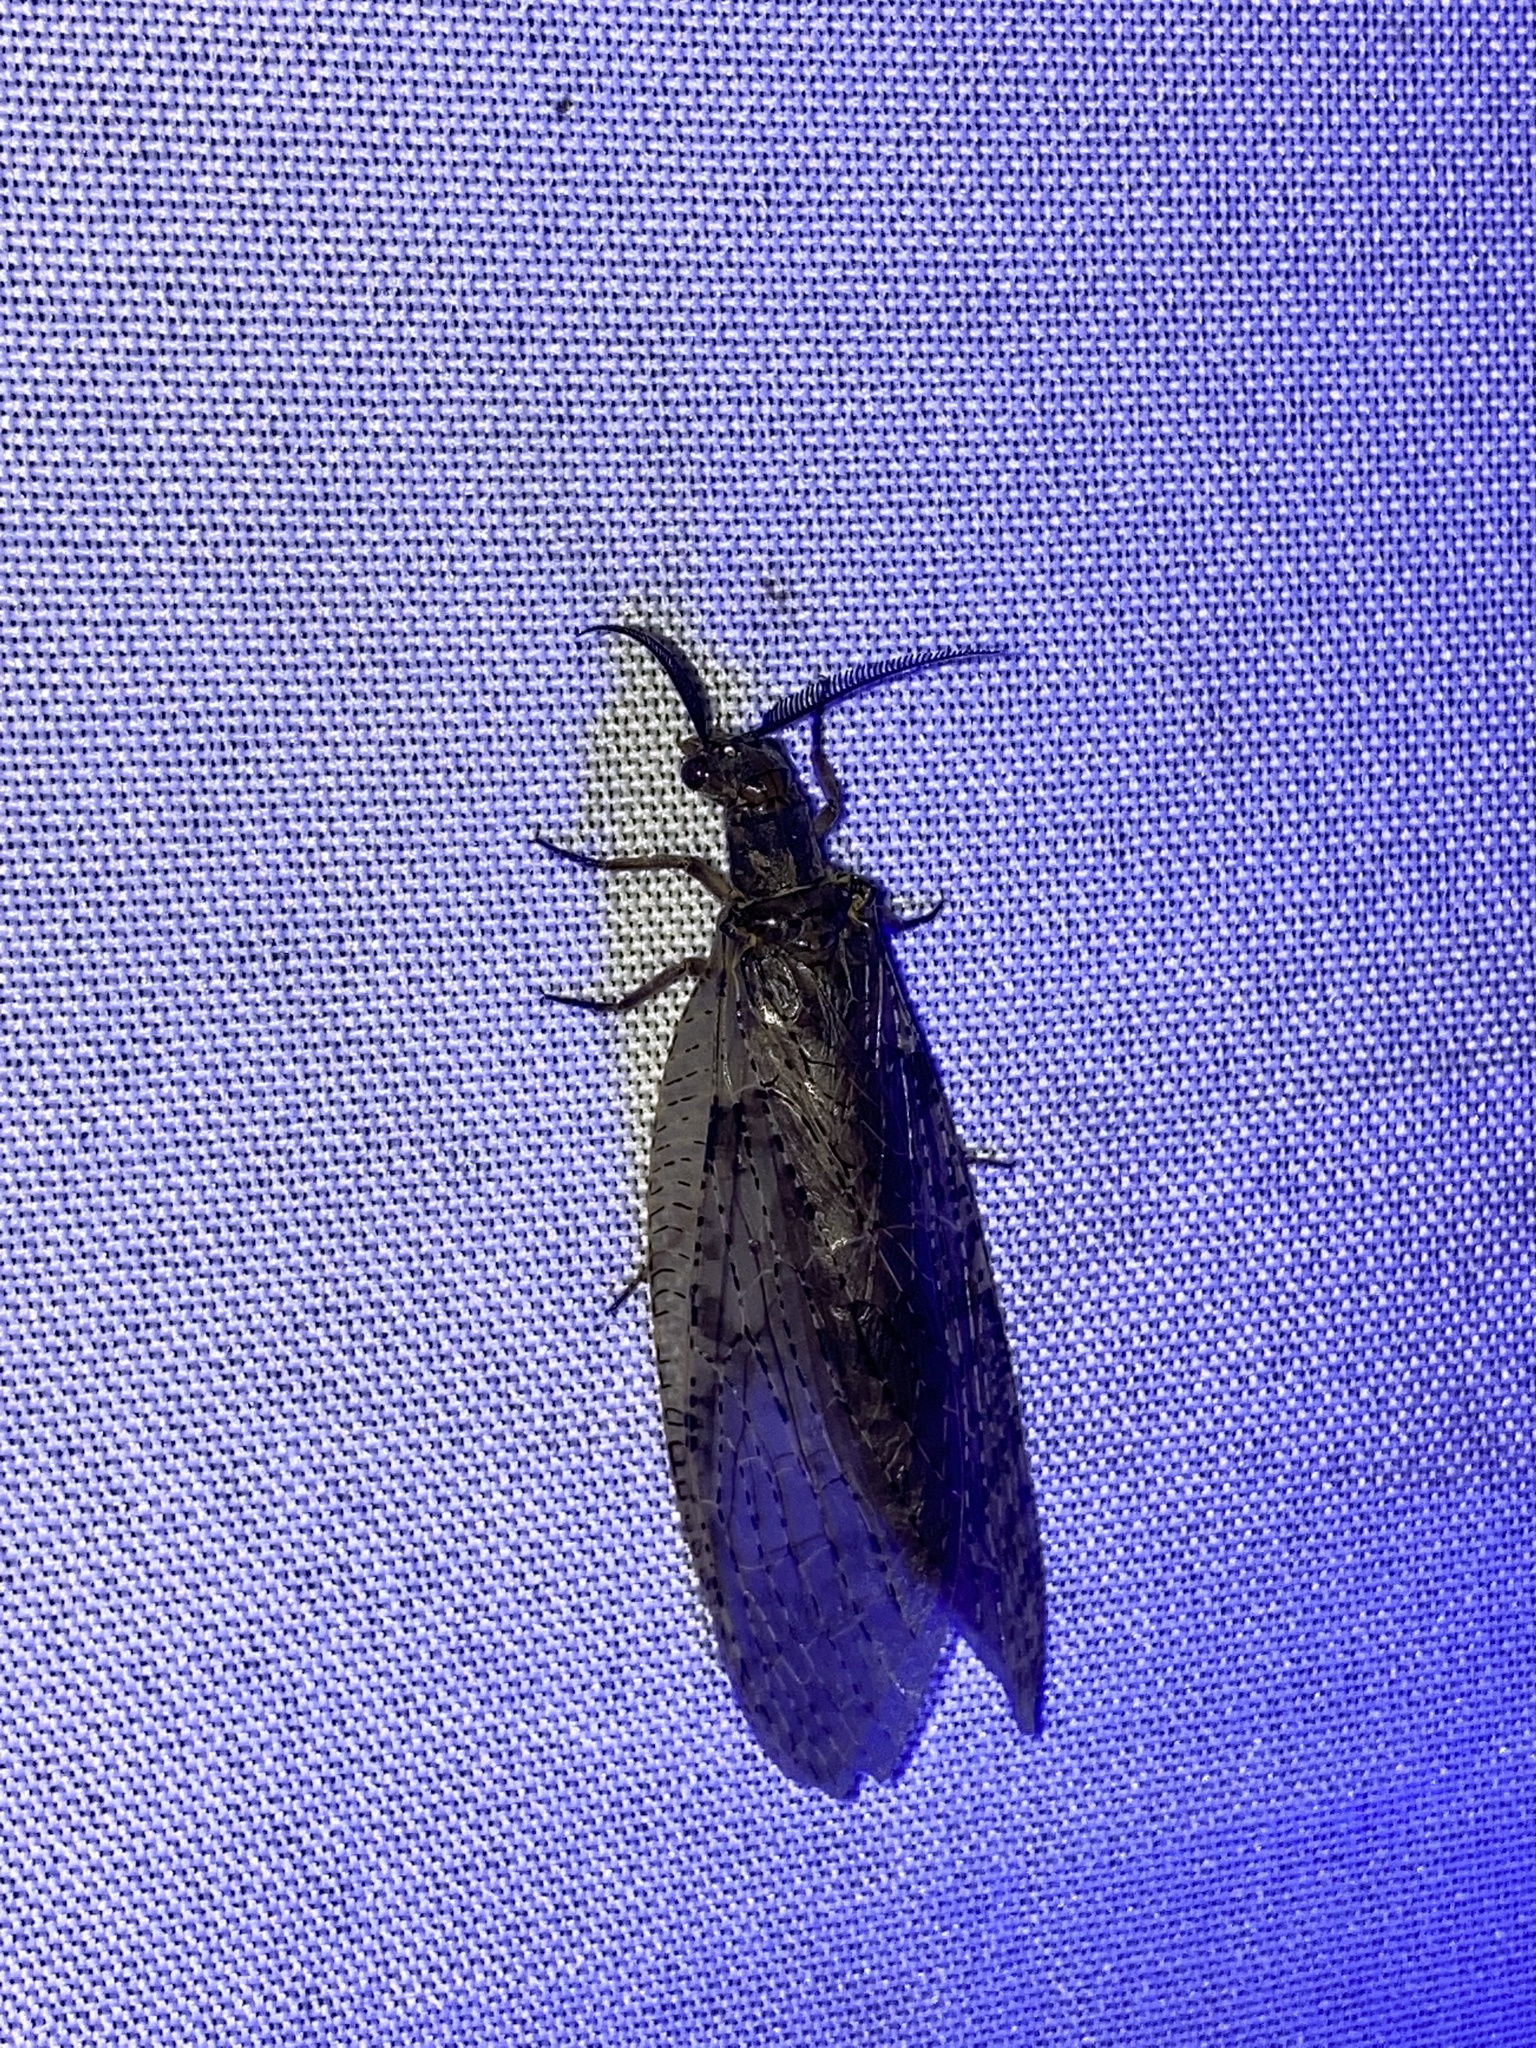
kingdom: Animalia
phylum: Arthropoda
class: Insecta
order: Megaloptera
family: Corydalidae
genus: Chauliodes
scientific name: Chauliodes pectinicornis
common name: Summer fishfly
